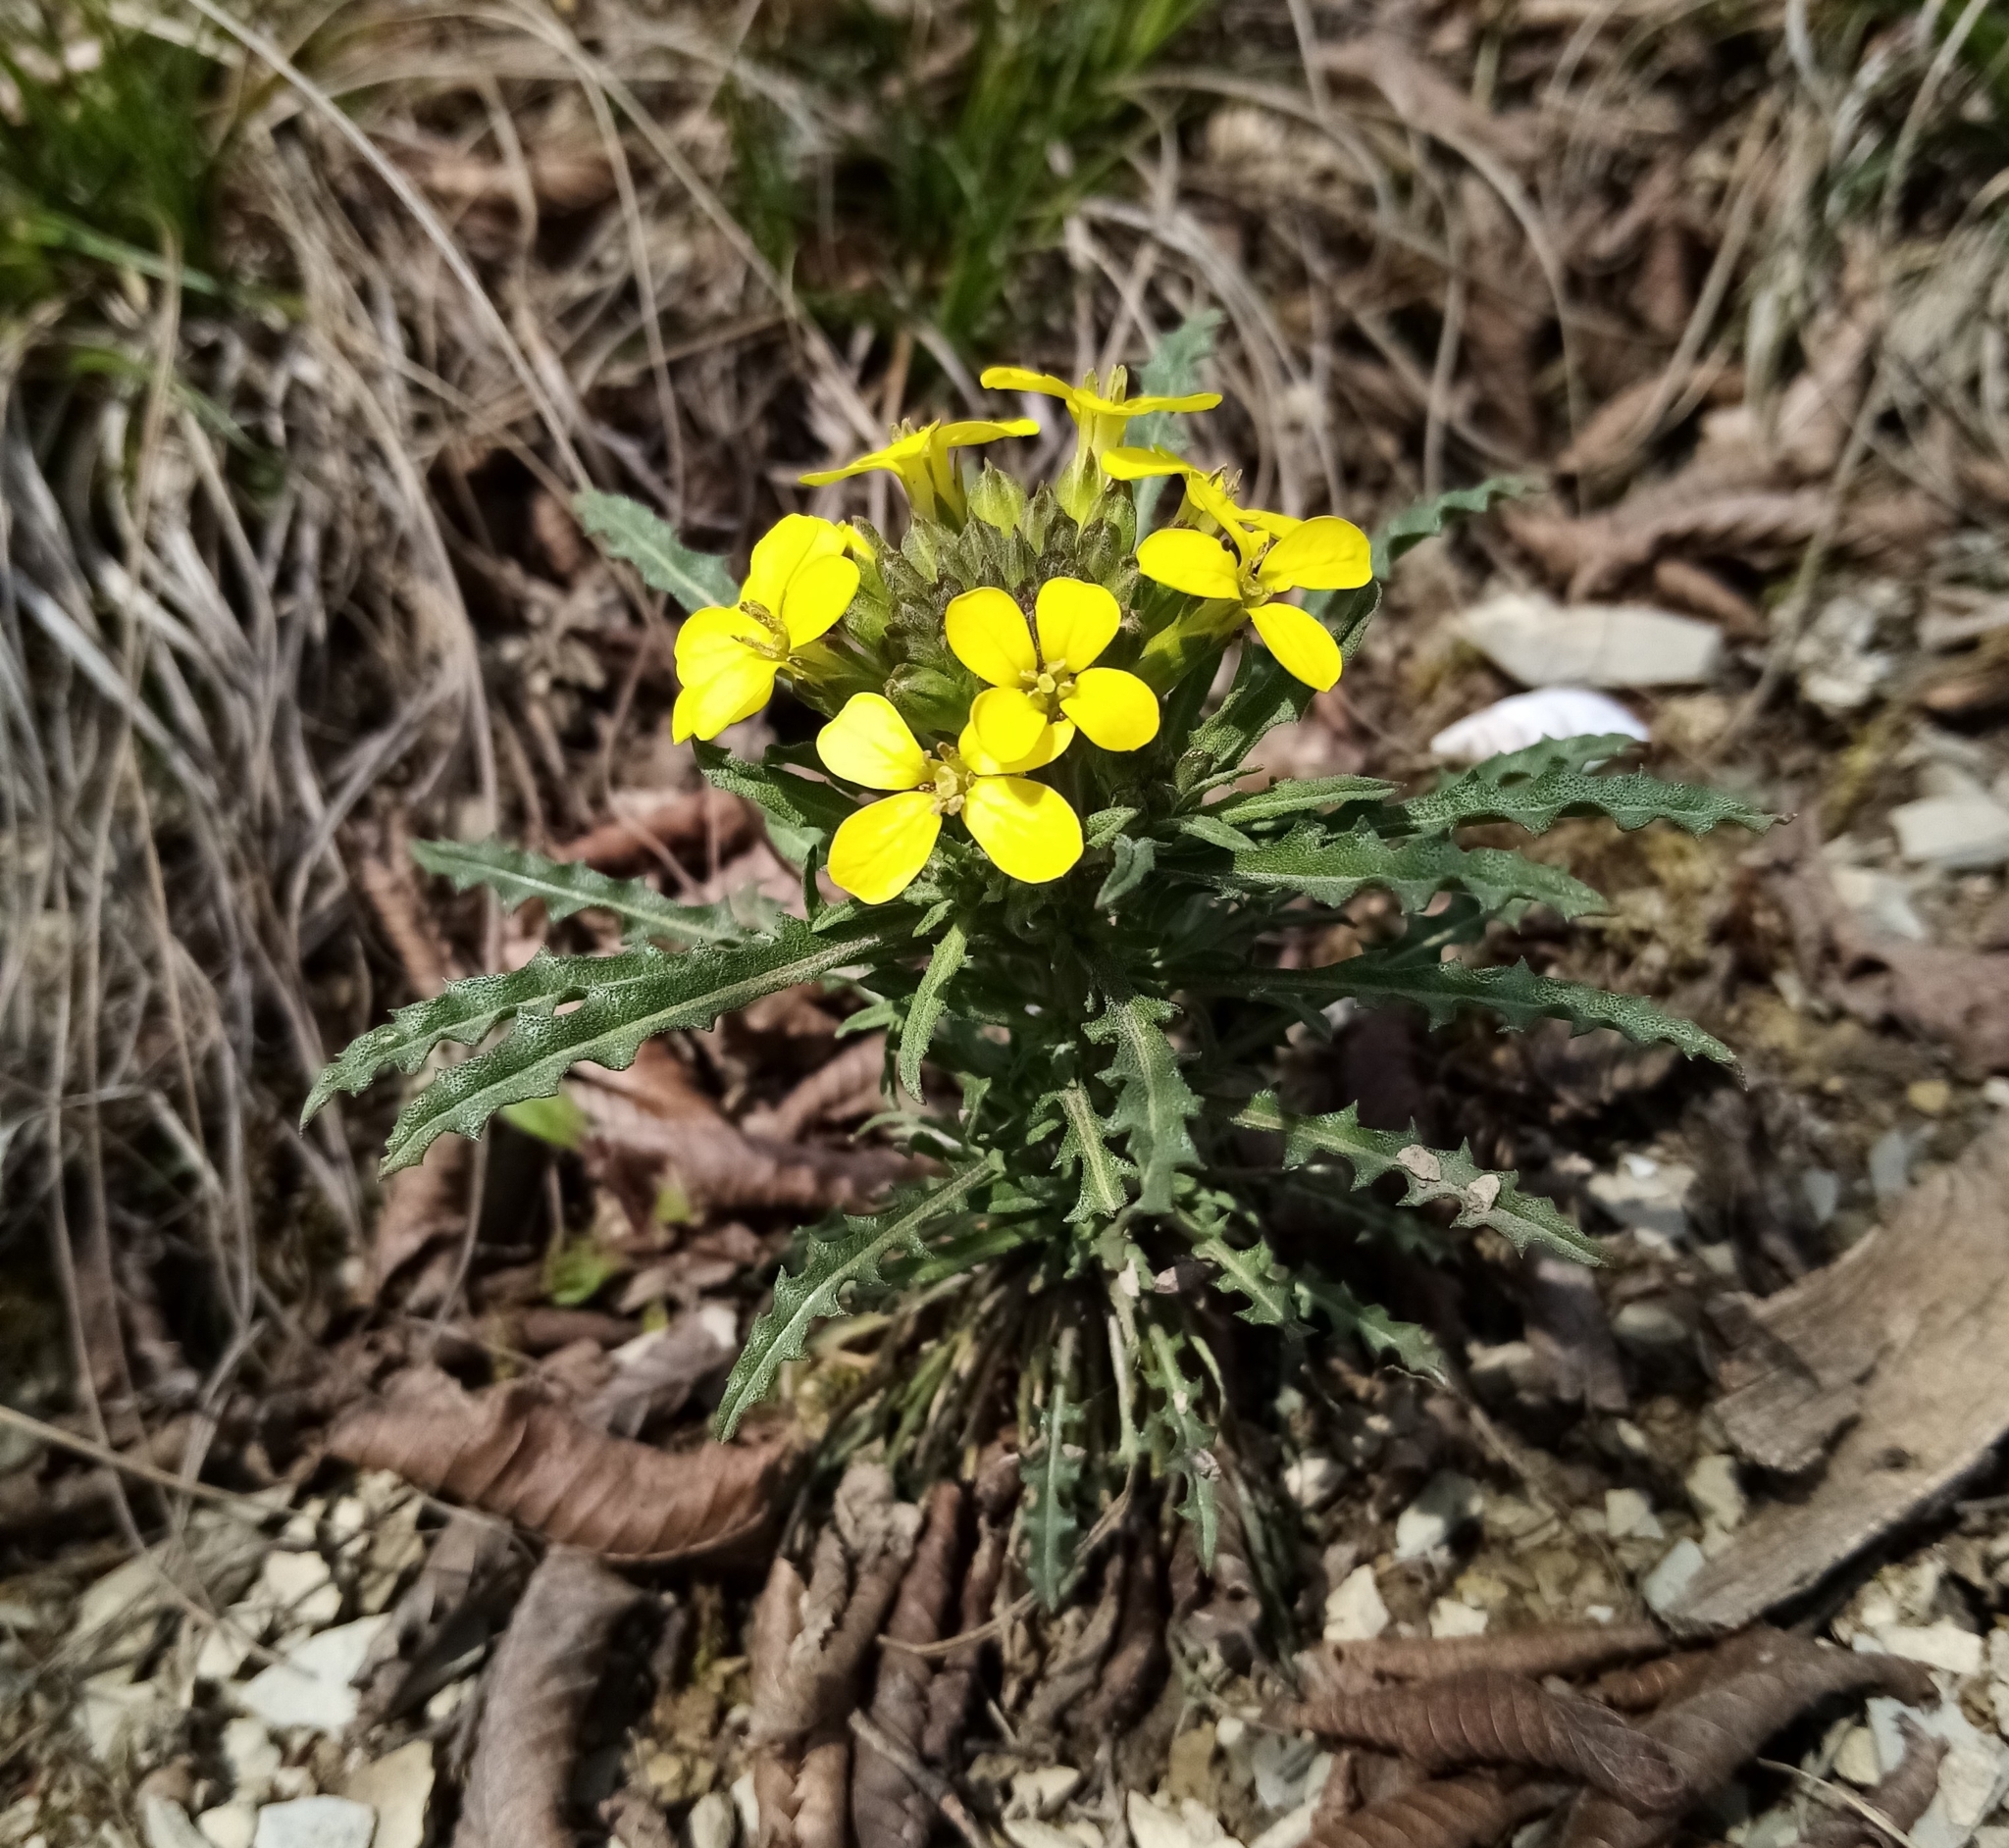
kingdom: Plantae
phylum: Tracheophyta
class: Magnoliopsida
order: Brassicales
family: Brassicaceae
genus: Erysimum
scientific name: Erysimum callicarpum
